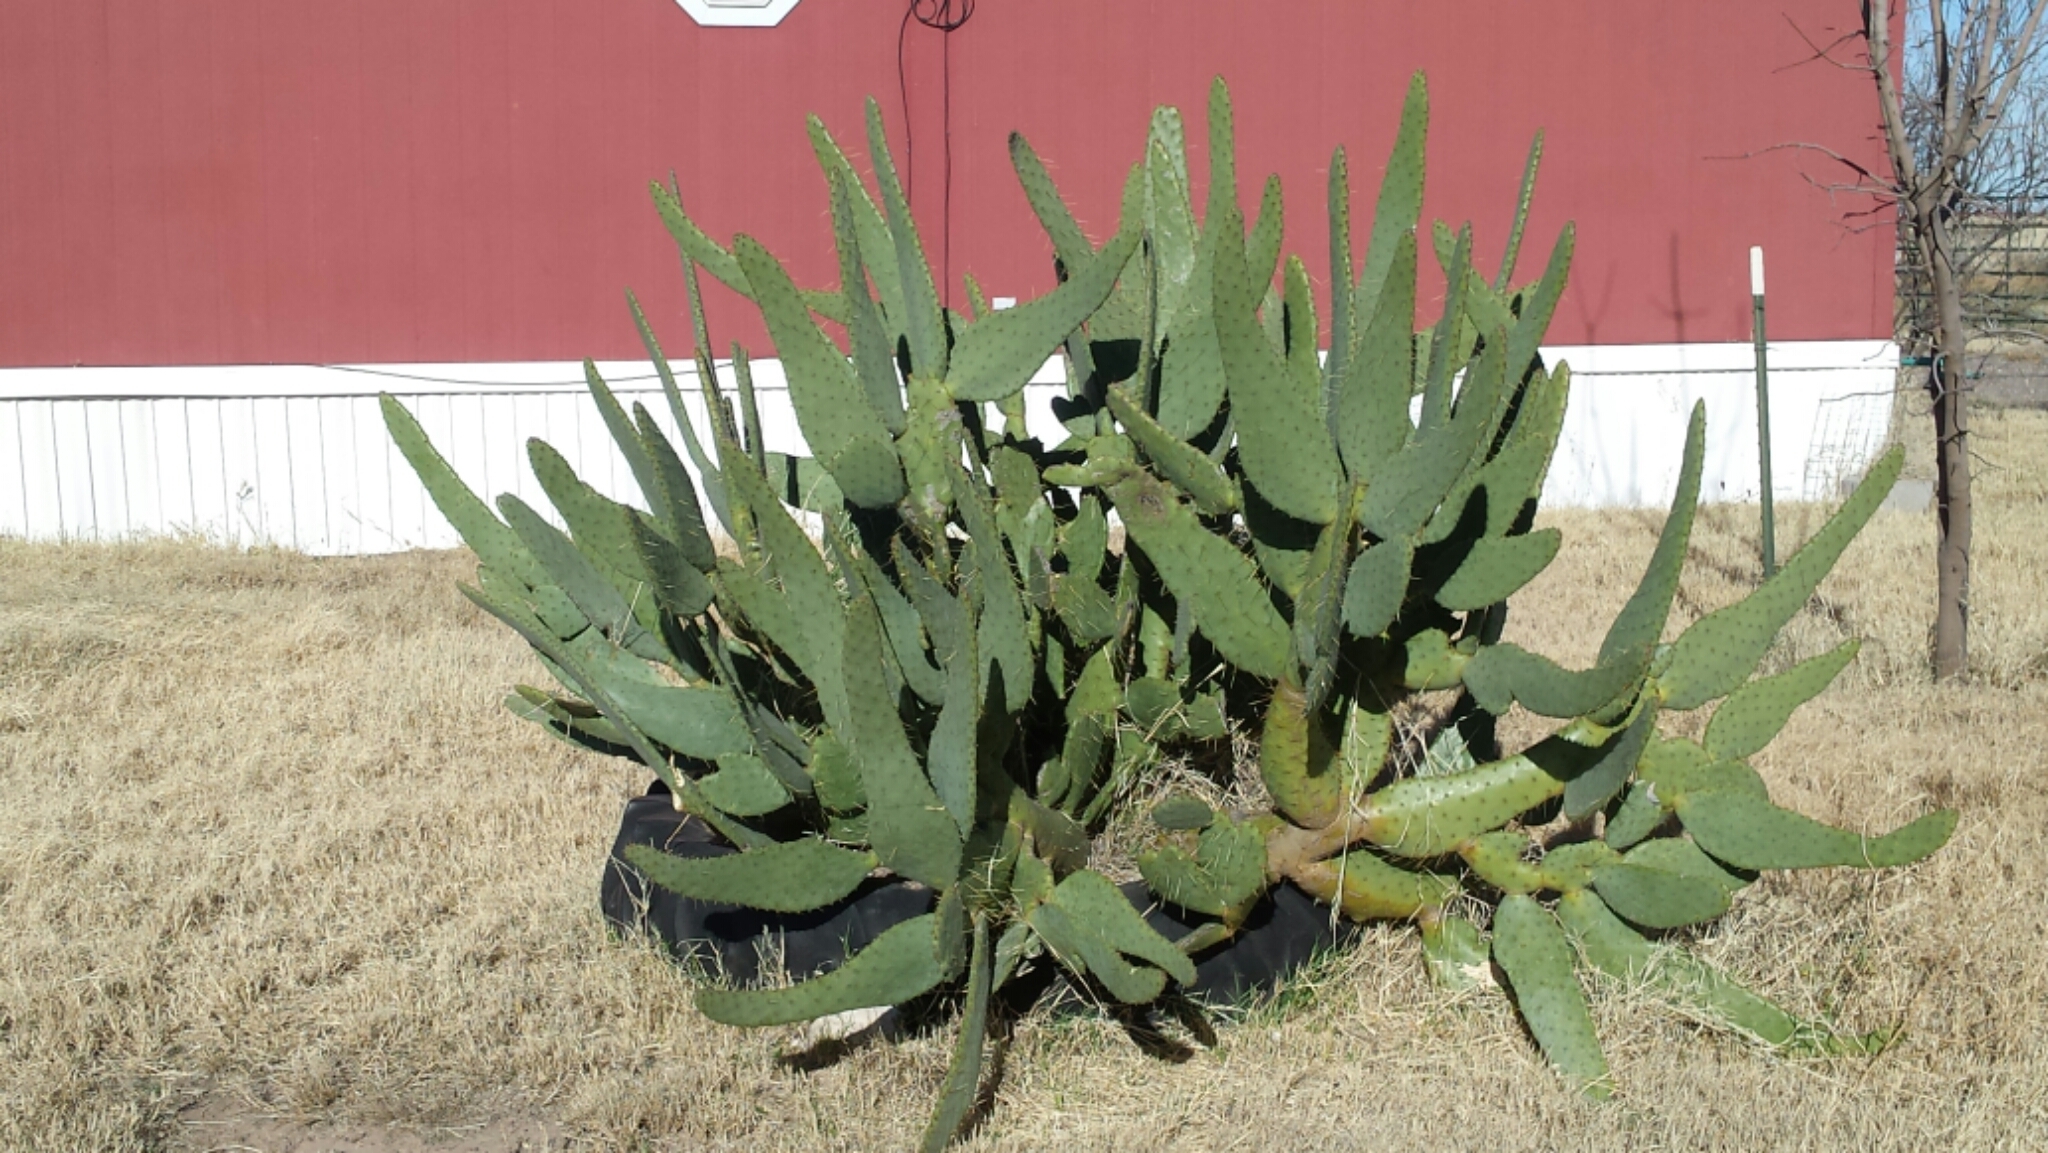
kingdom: Plantae
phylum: Tracheophyta
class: Magnoliopsida
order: Caryophyllales
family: Cactaceae
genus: Opuntia
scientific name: Opuntia engelmannii
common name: Cactus-apple
